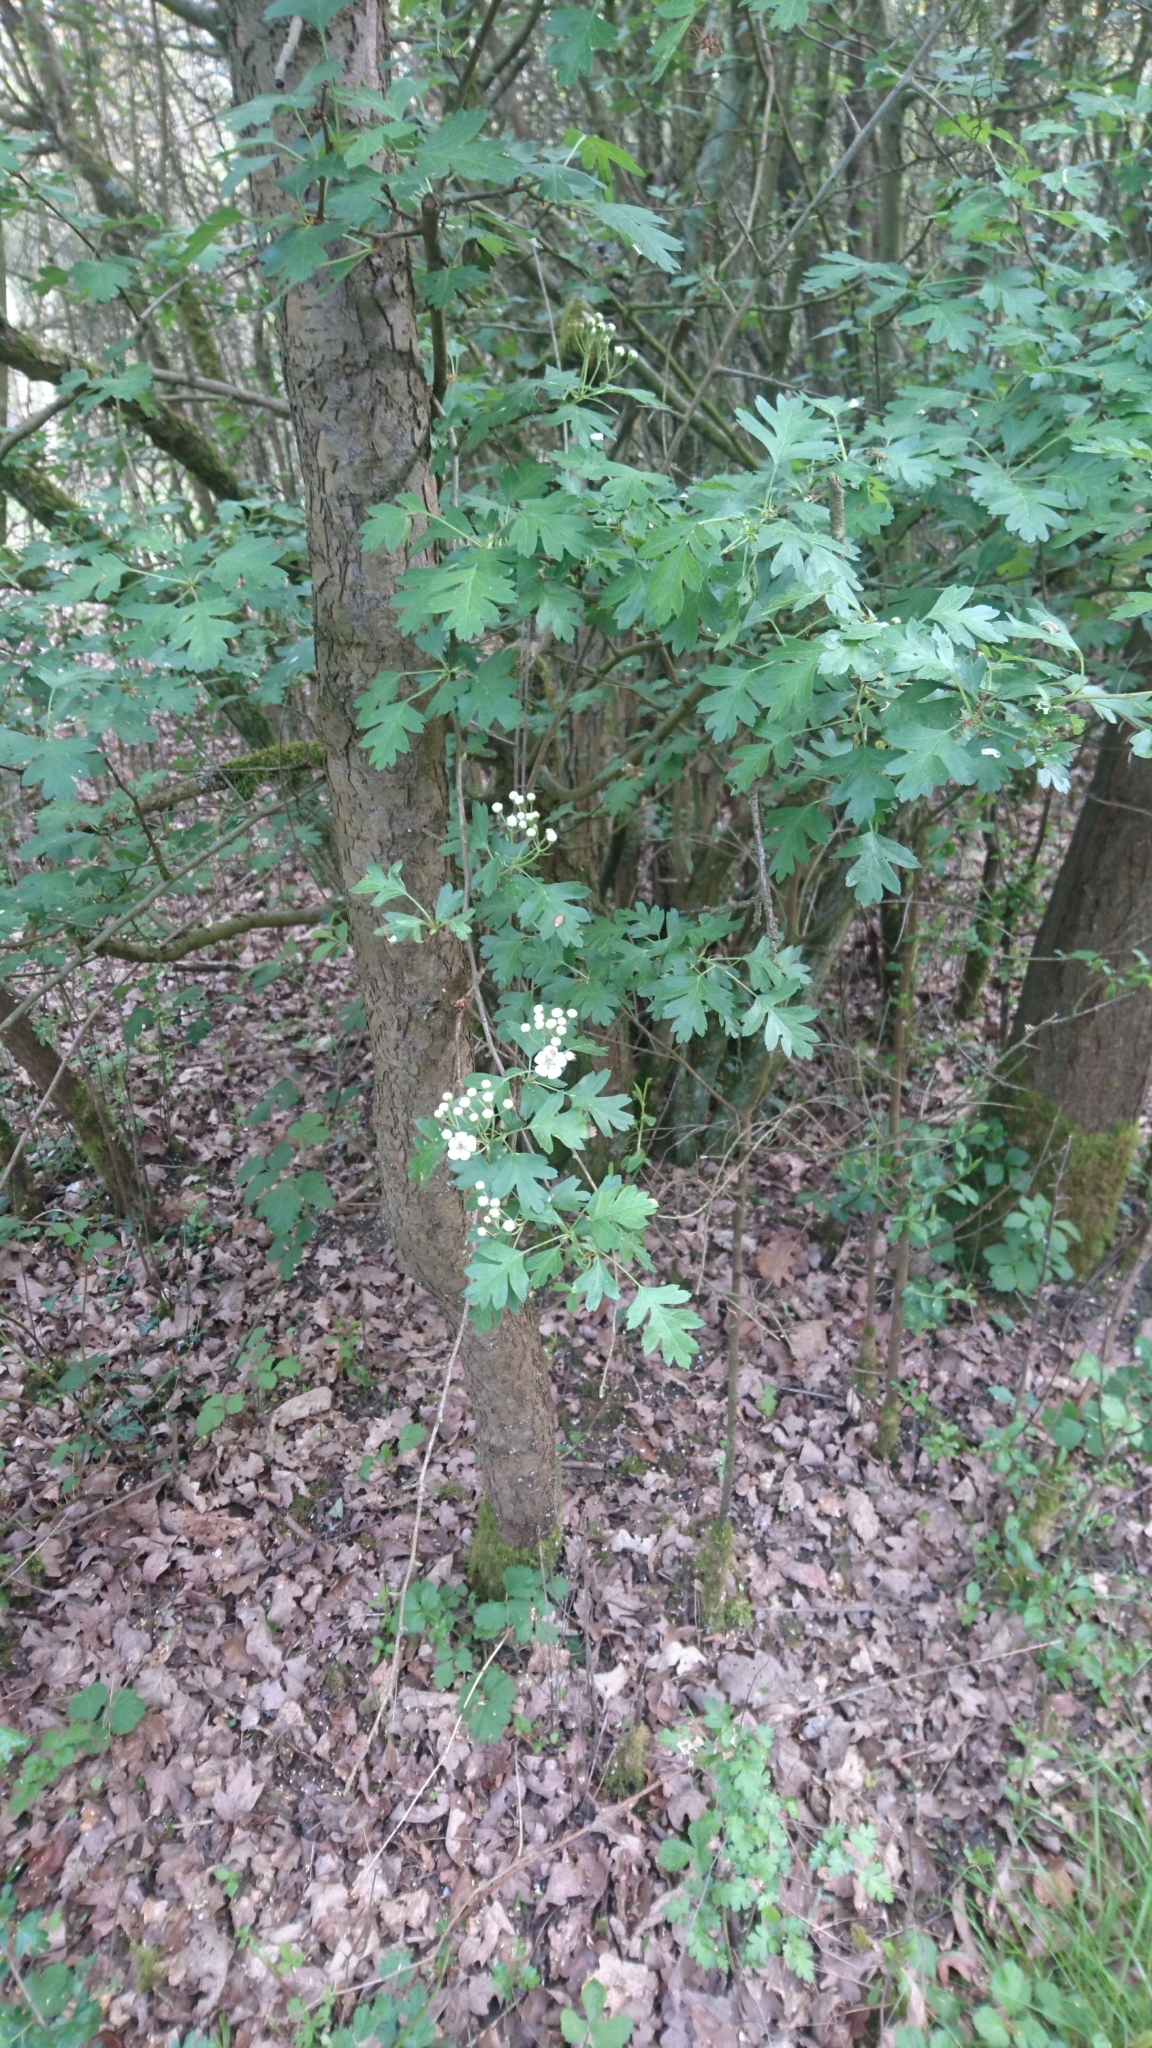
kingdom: Plantae
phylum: Tracheophyta
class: Magnoliopsida
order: Rosales
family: Rosaceae
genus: Crataegus
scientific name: Crataegus monogyna
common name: Hawthorn
